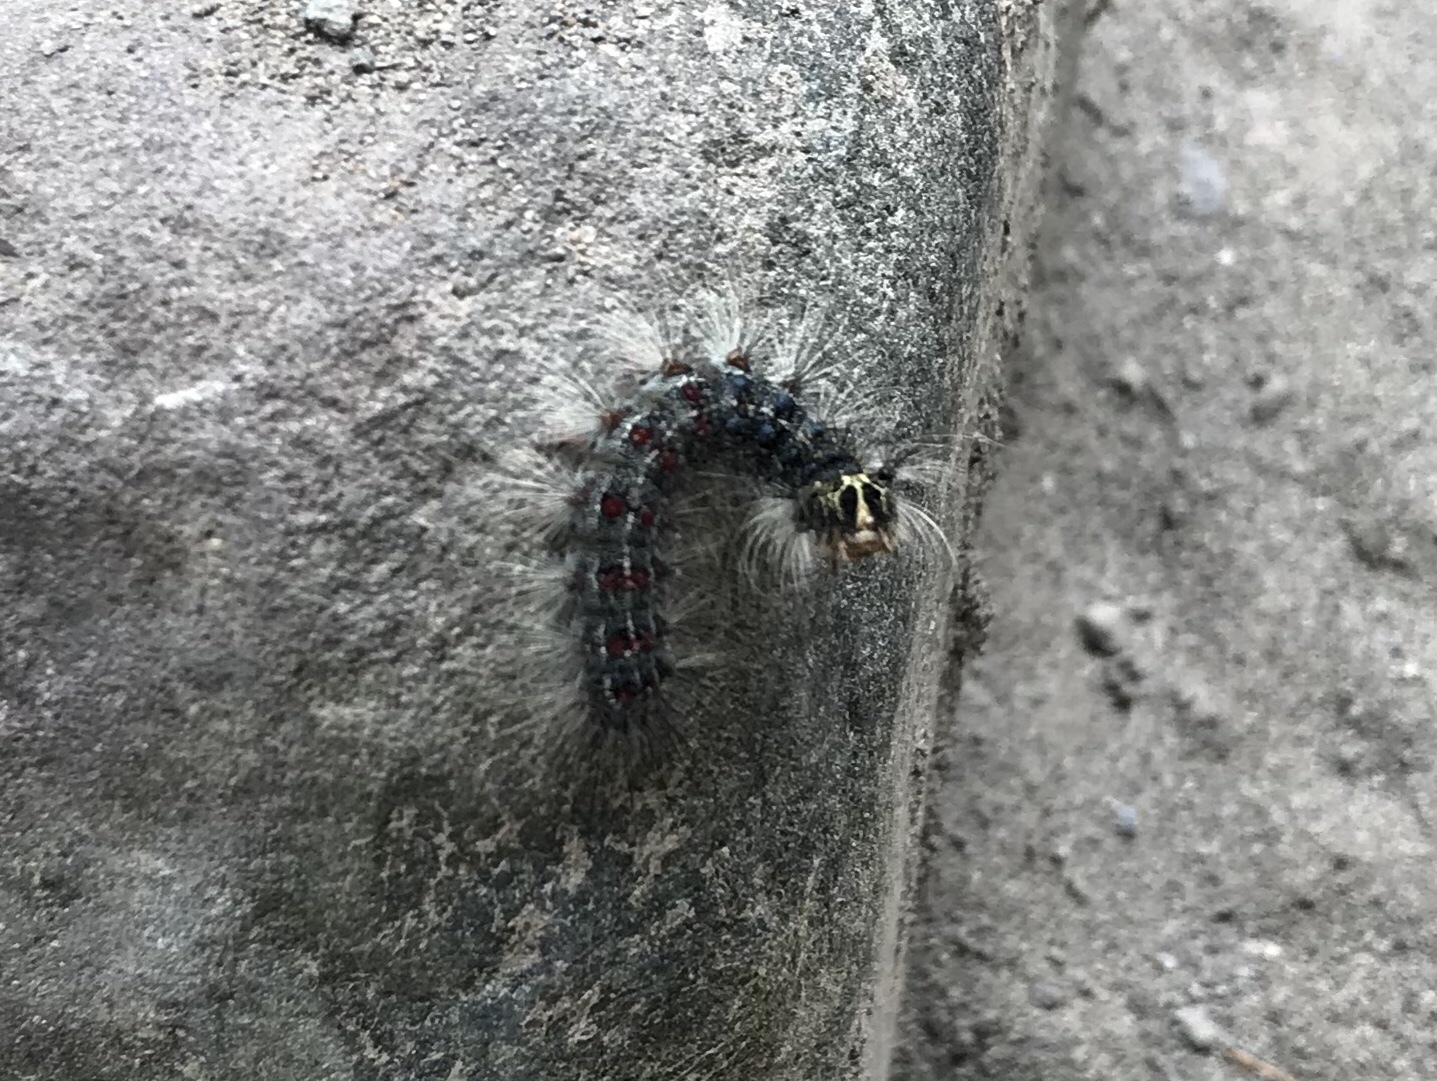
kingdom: Animalia
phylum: Arthropoda
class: Insecta
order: Lepidoptera
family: Erebidae
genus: Lymantria
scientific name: Lymantria dispar
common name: Gypsy moth
